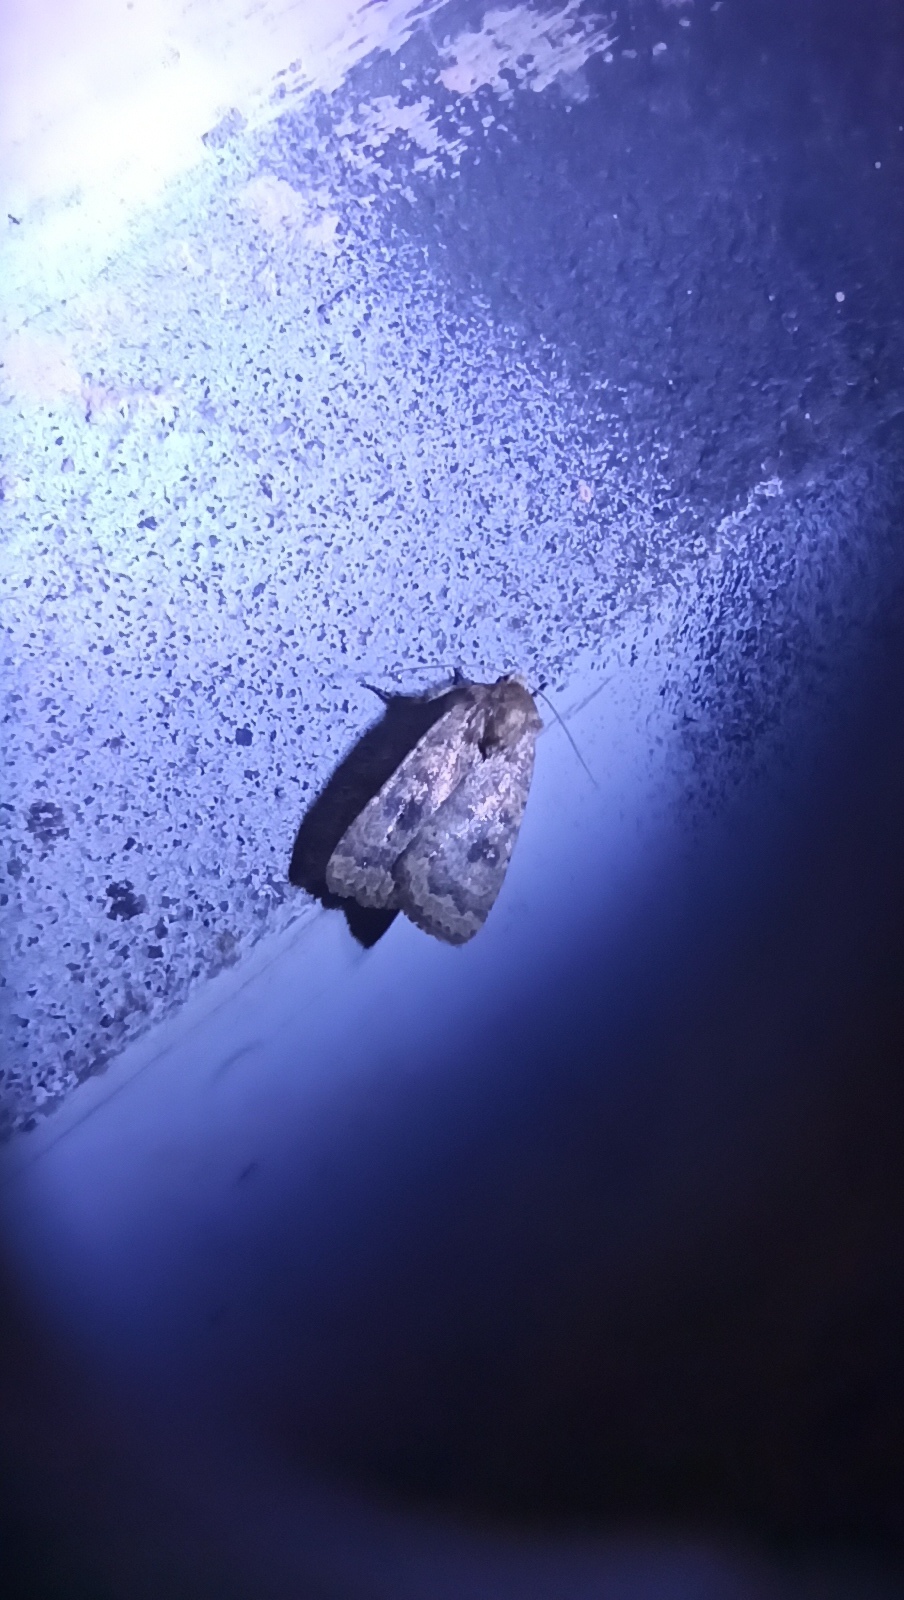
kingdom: Animalia
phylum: Arthropoda
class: Insecta
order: Lepidoptera
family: Noctuidae
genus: Caradrina
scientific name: Caradrina morpheus
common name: Mottled rustic
